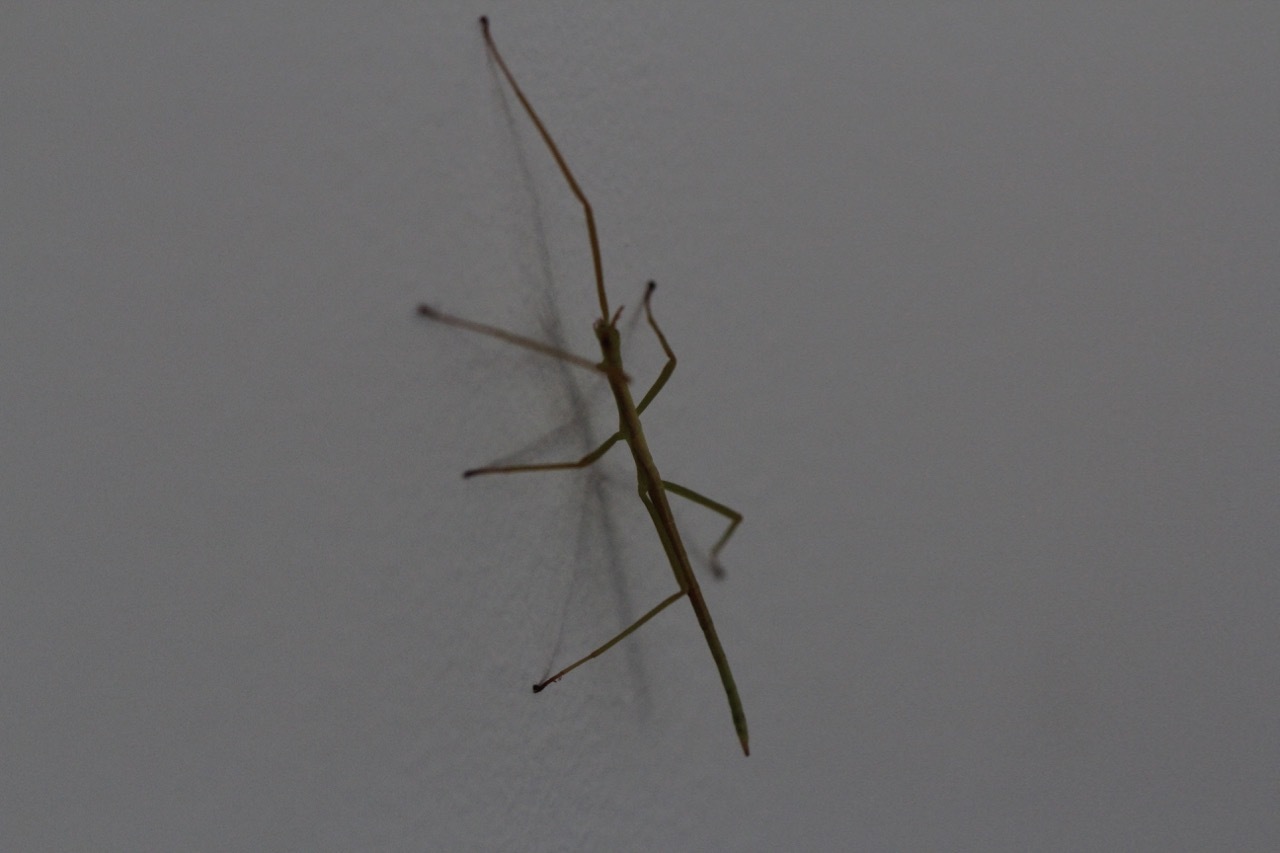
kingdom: Animalia
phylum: Arthropoda
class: Insecta
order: Phasmida
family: Phasmatidae
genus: Didymuria
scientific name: Didymuria violescens
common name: Spur-legged stick-insect
